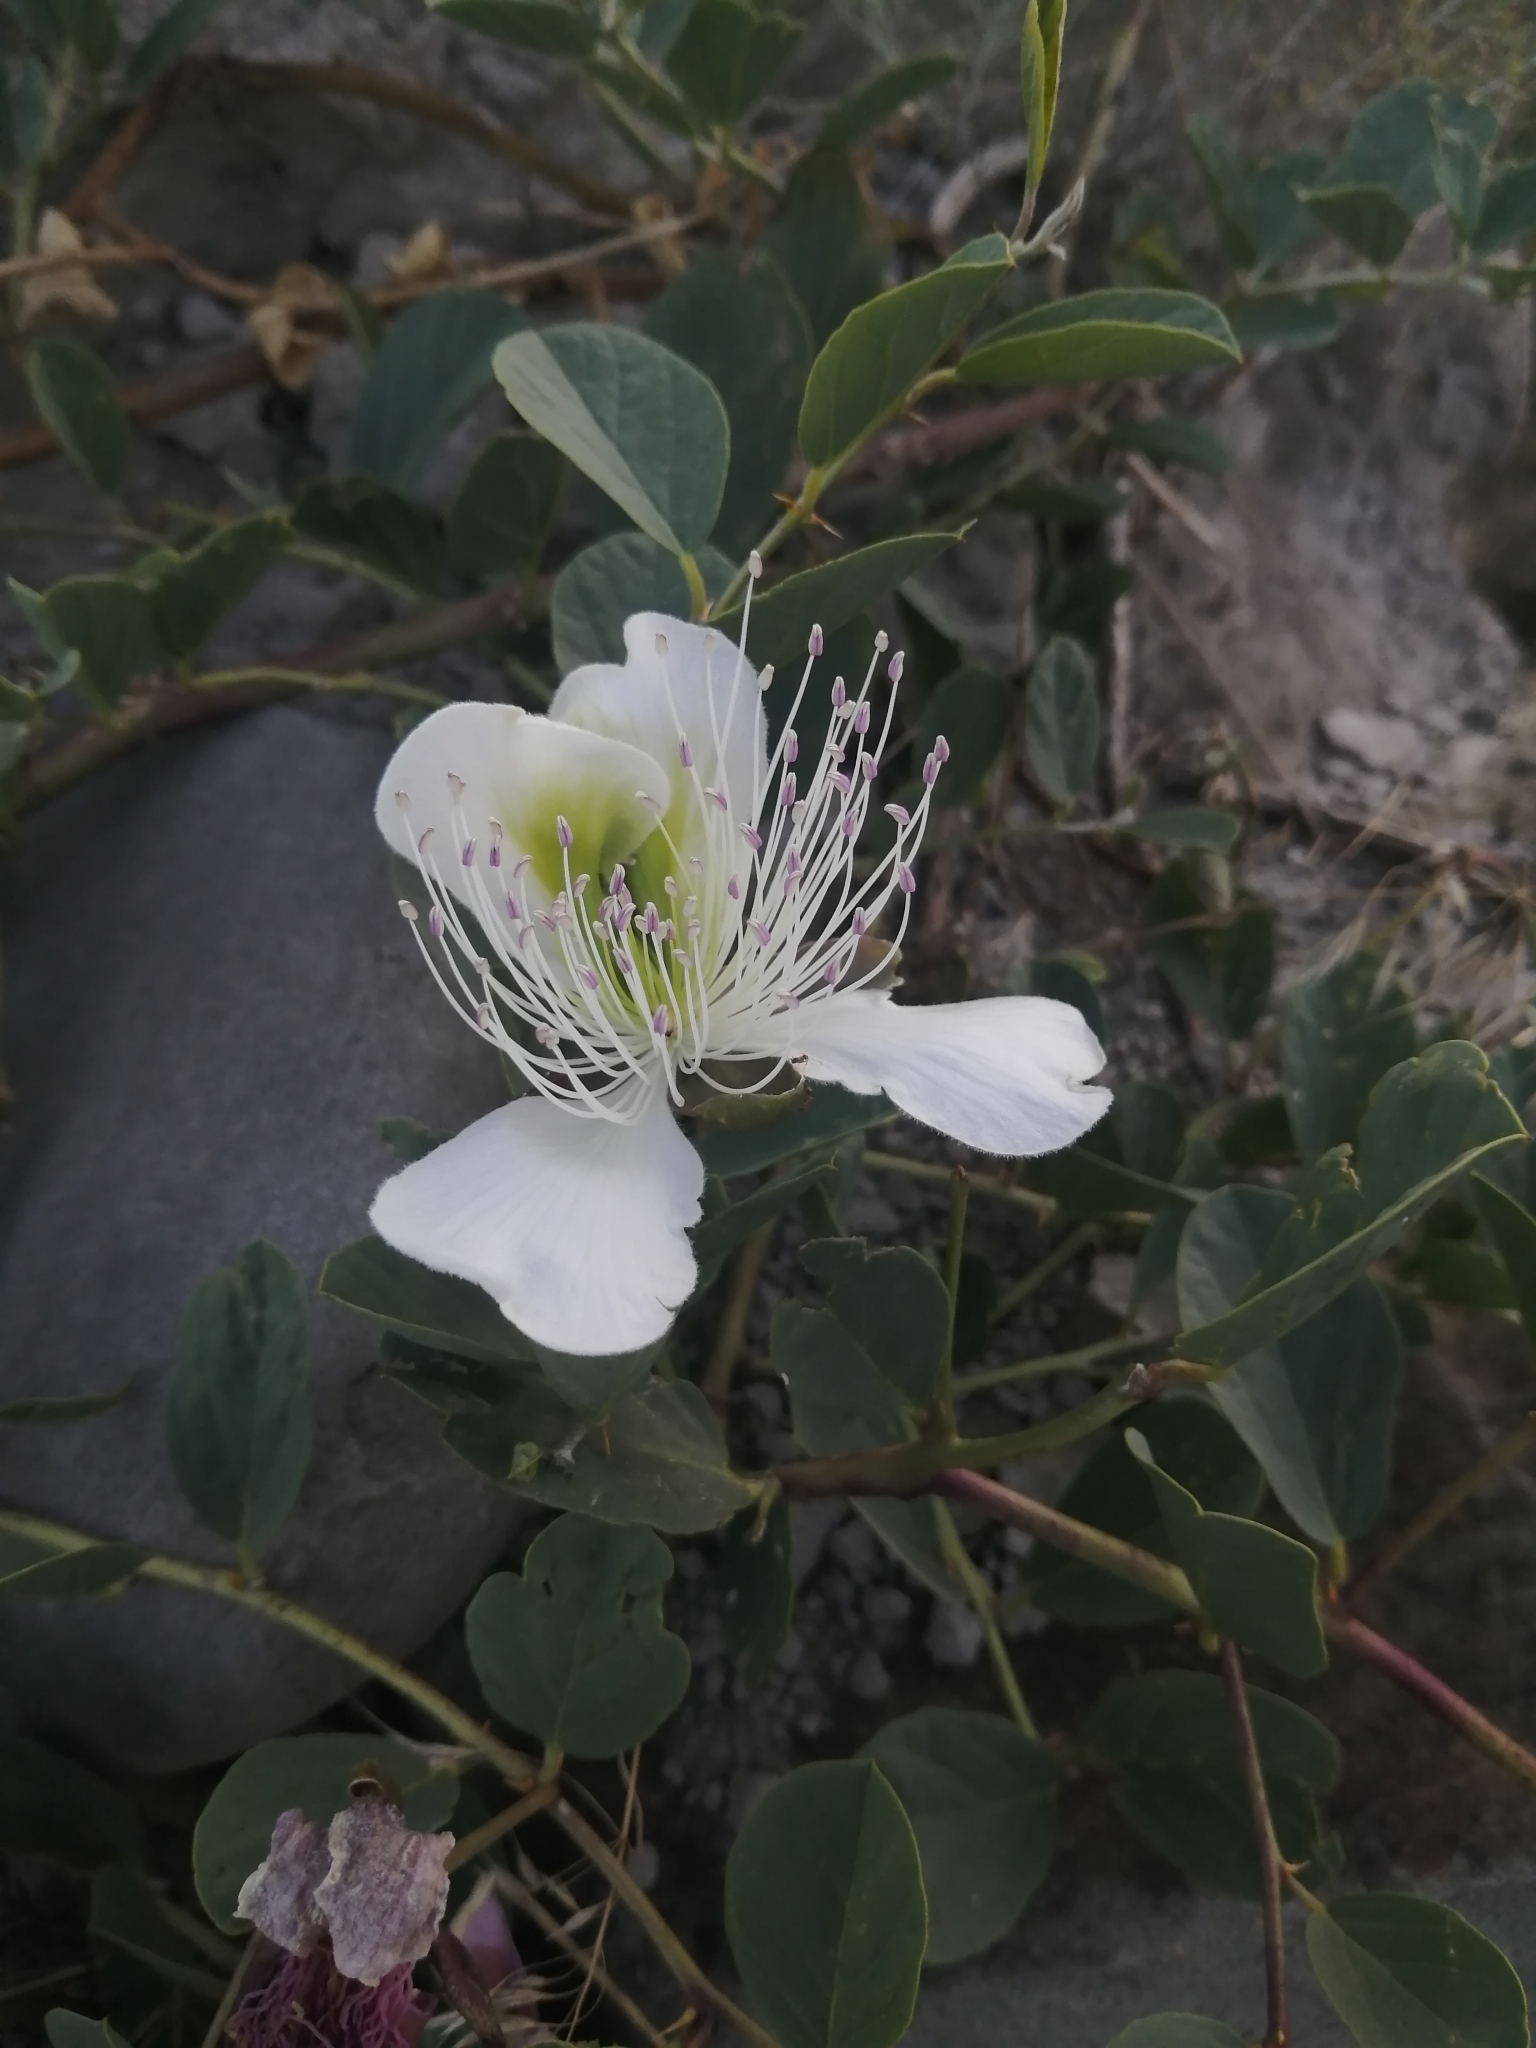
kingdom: Plantae
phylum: Tracheophyta
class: Magnoliopsida
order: Brassicales
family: Capparaceae
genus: Capparis
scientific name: Capparis spinosa
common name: Caper
